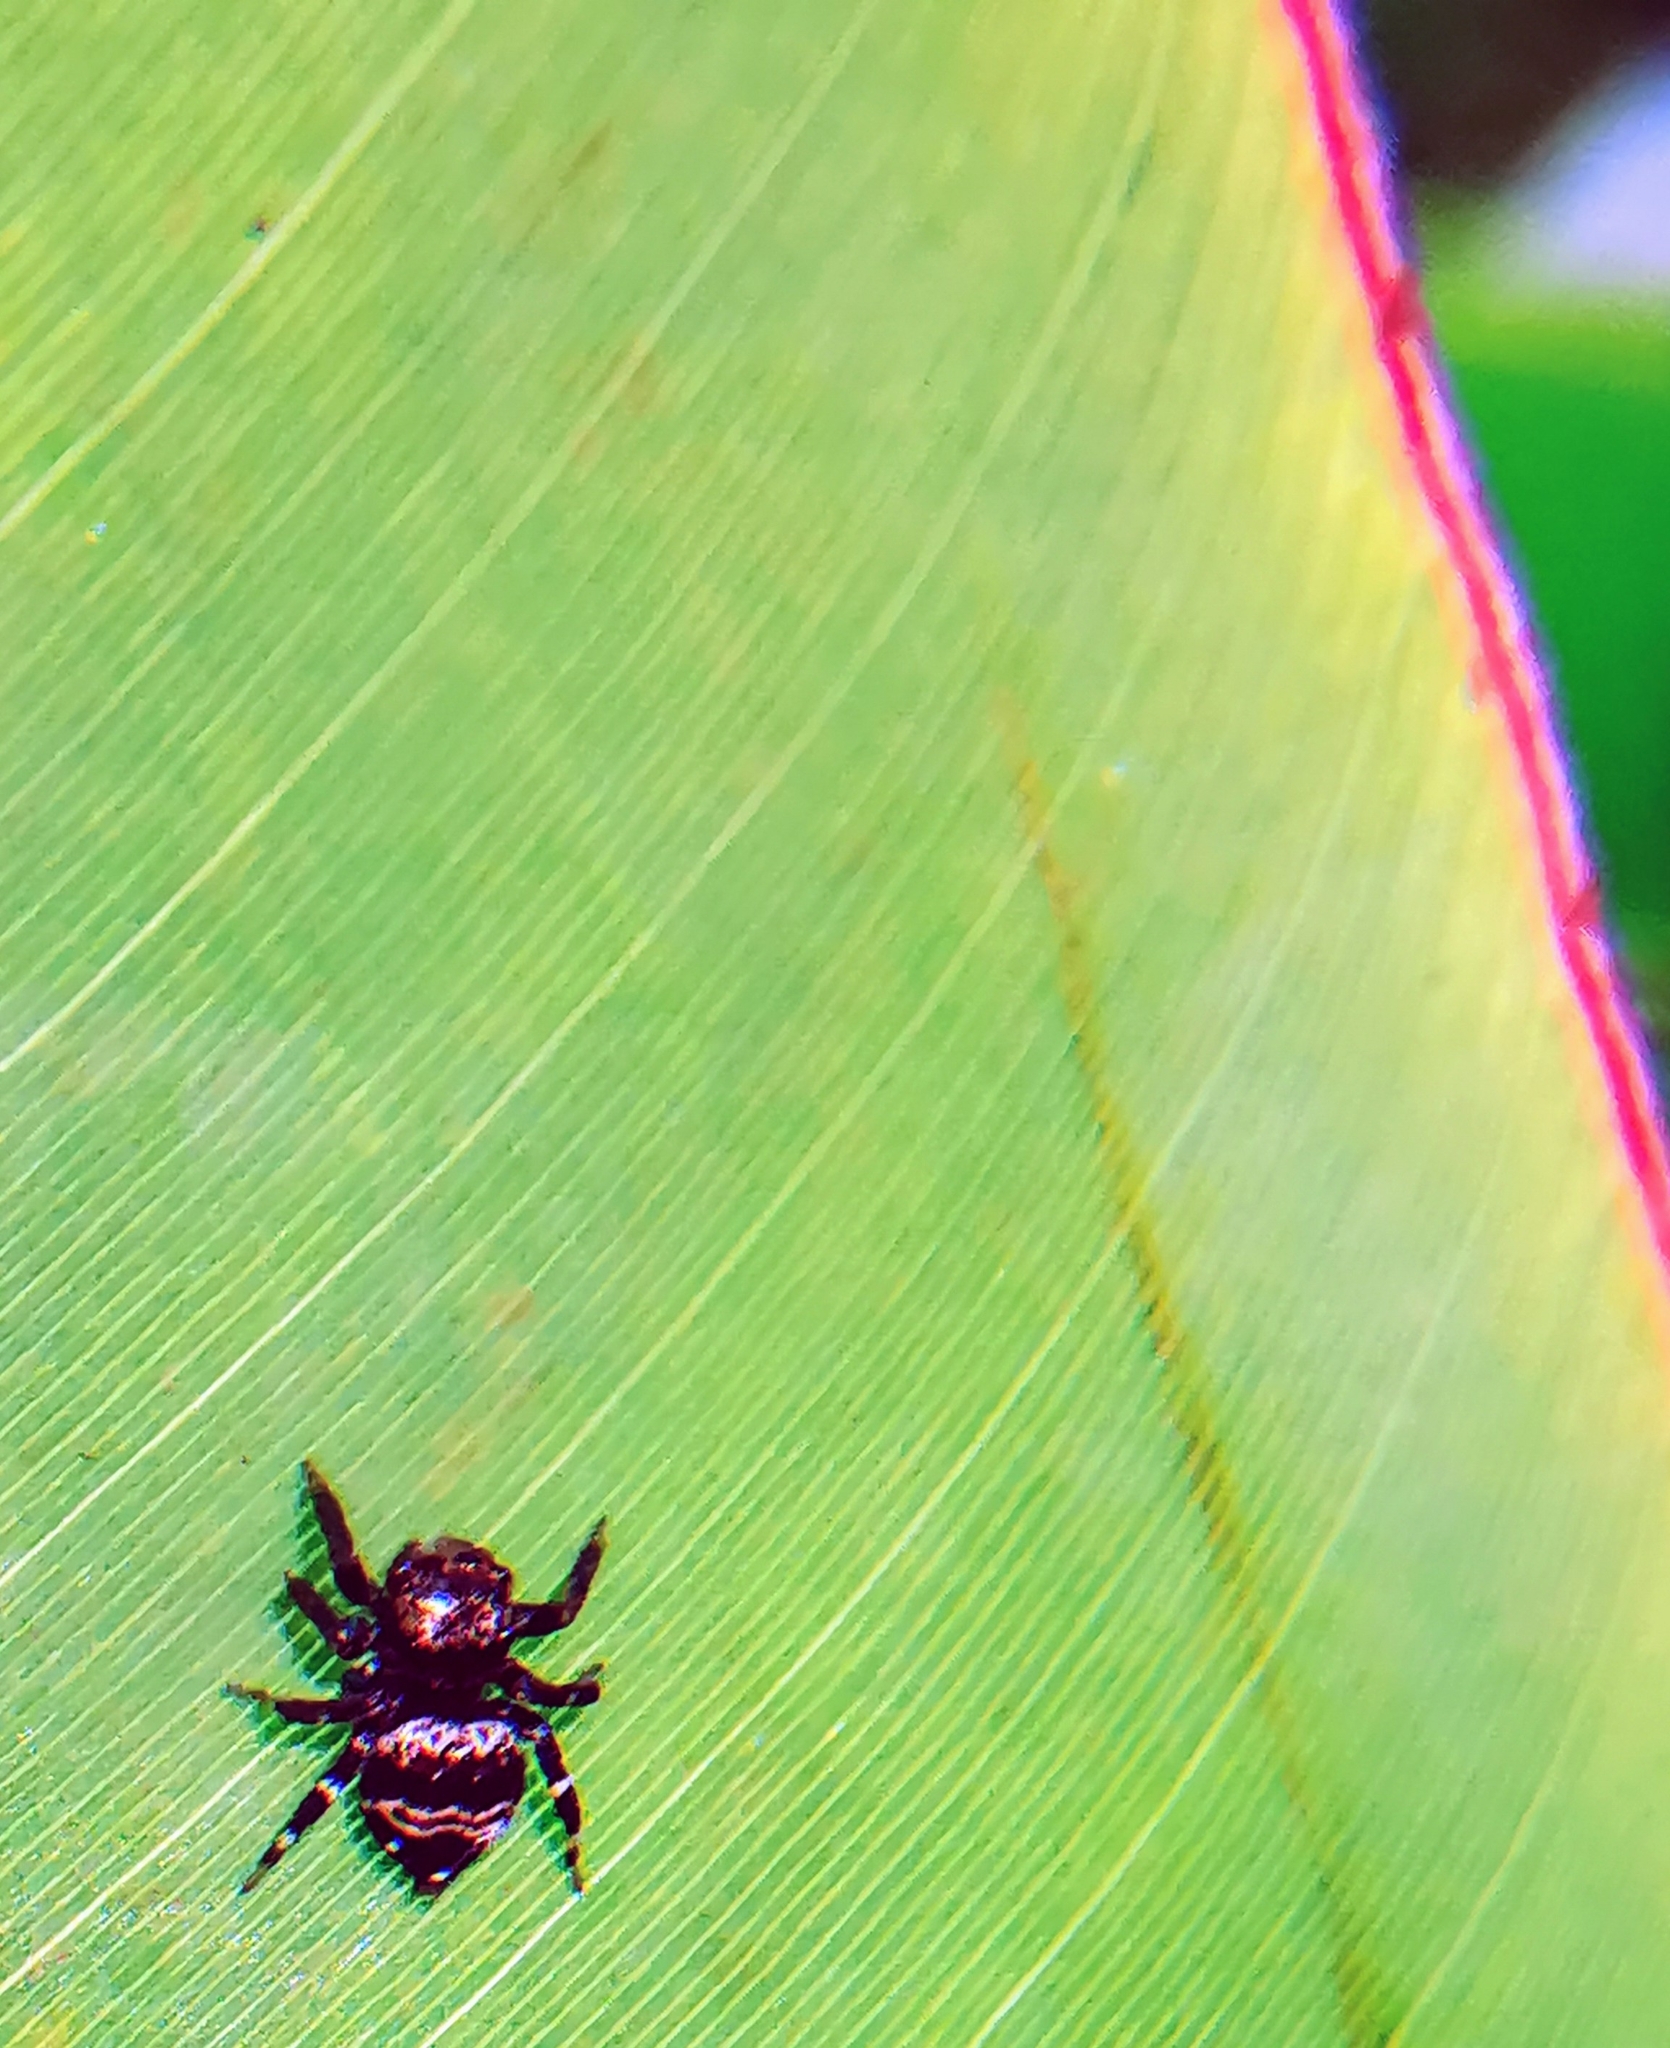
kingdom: Animalia
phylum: Arthropoda
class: Arachnida
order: Araneae
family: Salticidae
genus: Thorelliola
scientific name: Thorelliola ensifera
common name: Jumping spider
